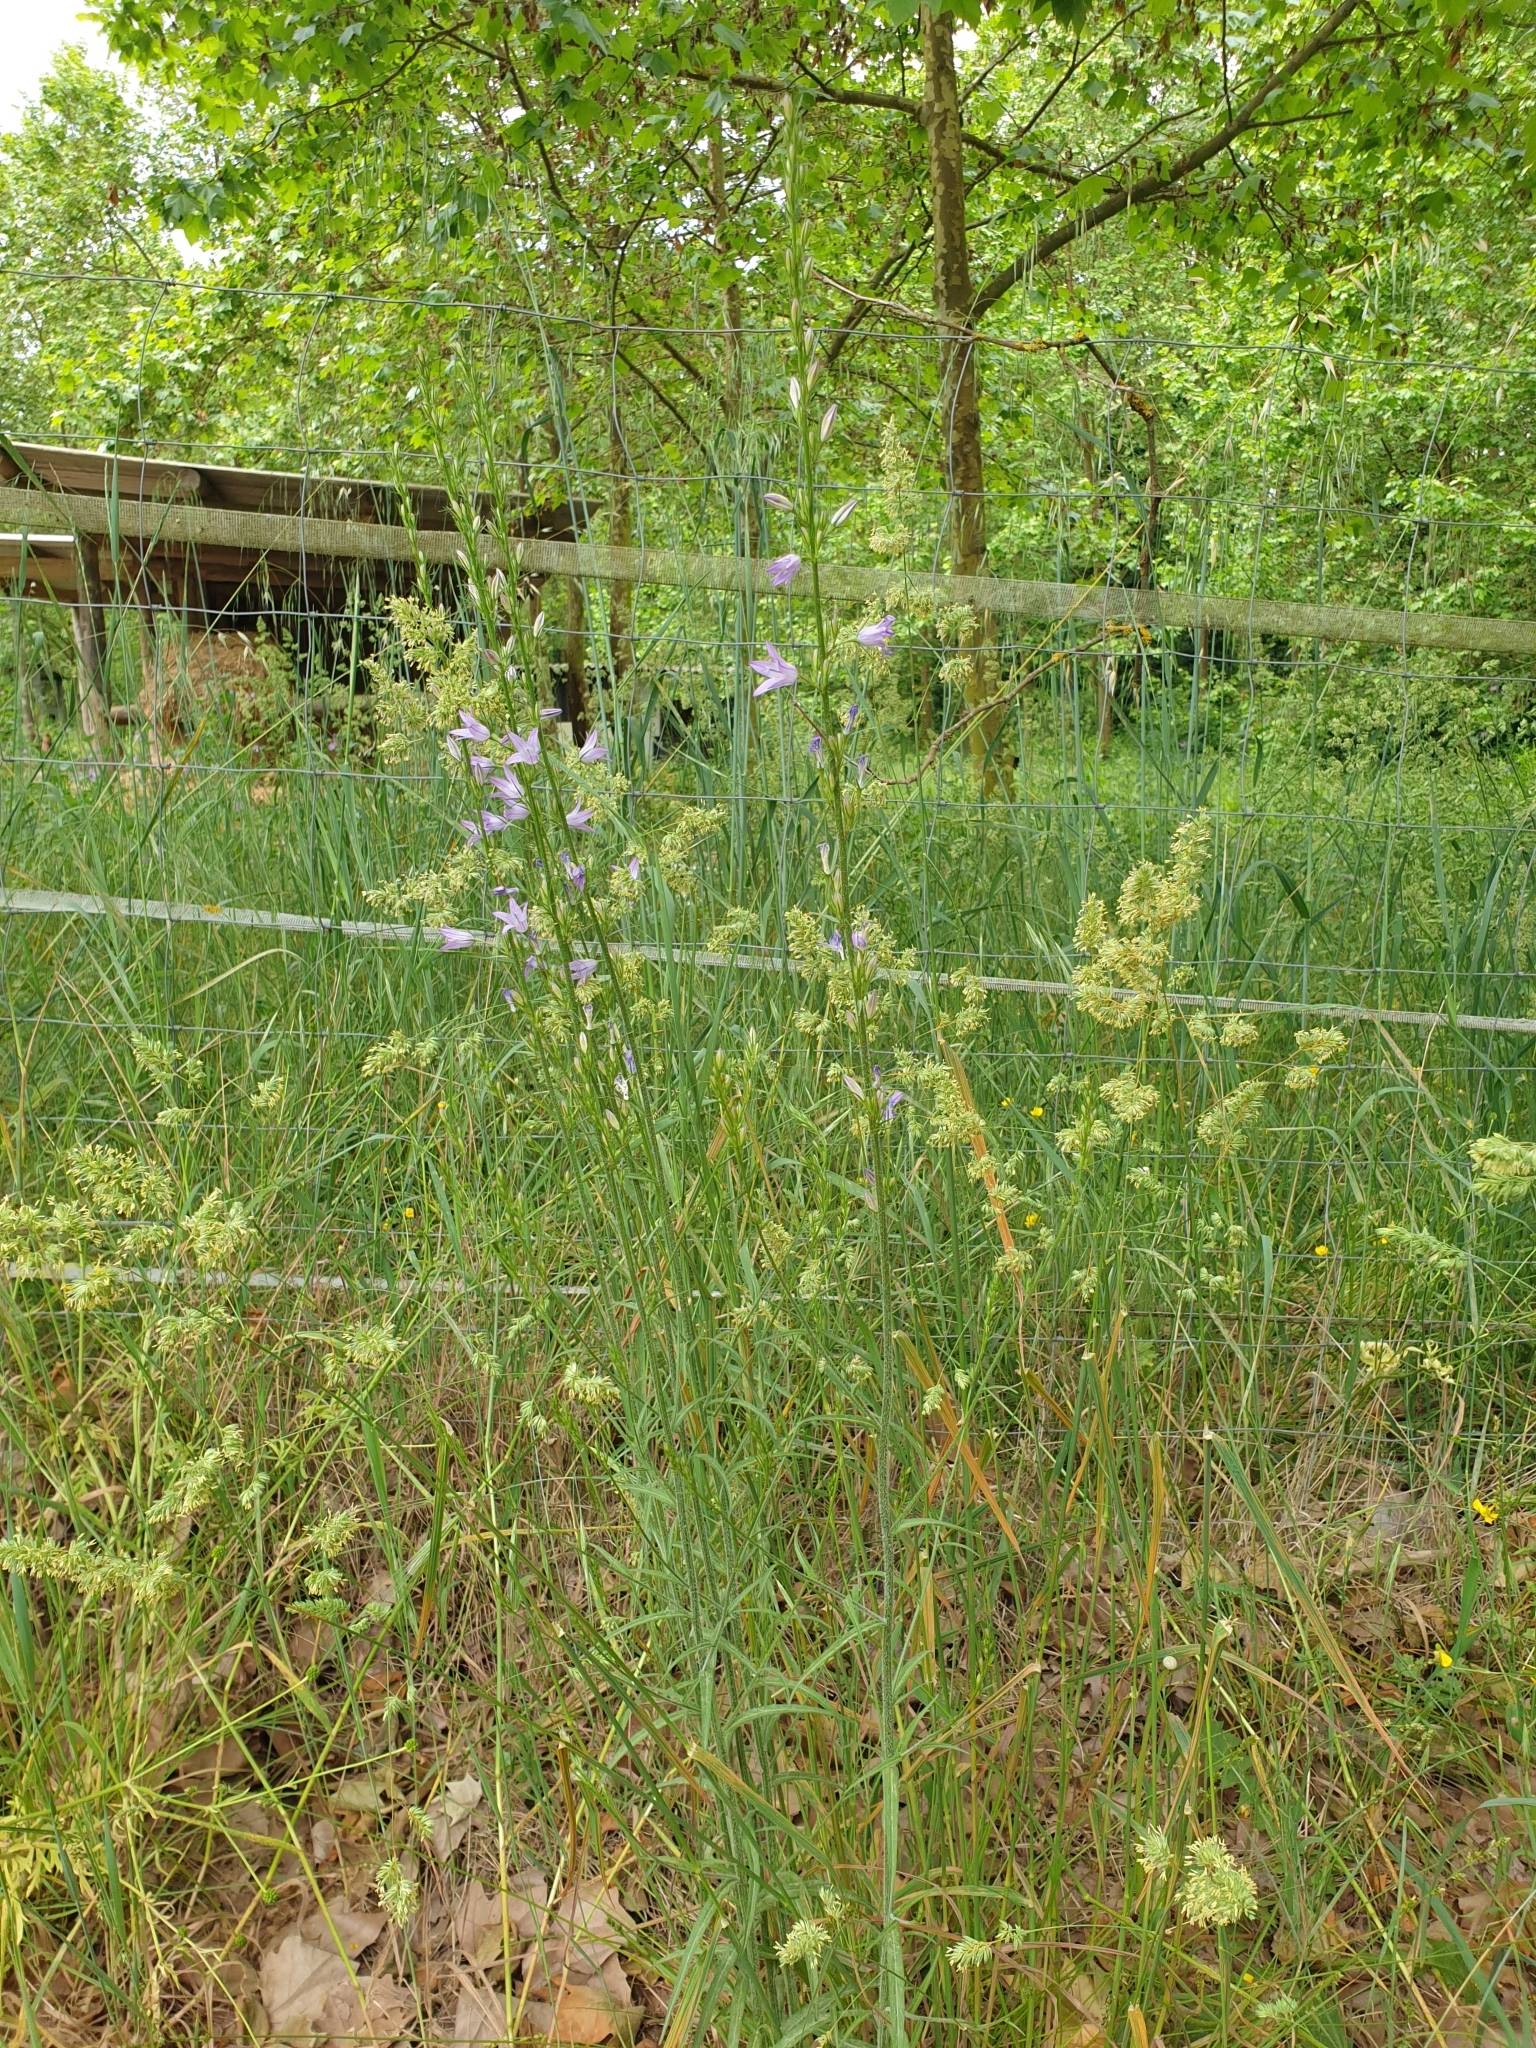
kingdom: Plantae
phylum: Tracheophyta
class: Magnoliopsida
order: Asterales
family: Campanulaceae
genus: Campanula
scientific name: Campanula rapunculus
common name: Rampion bellflower
